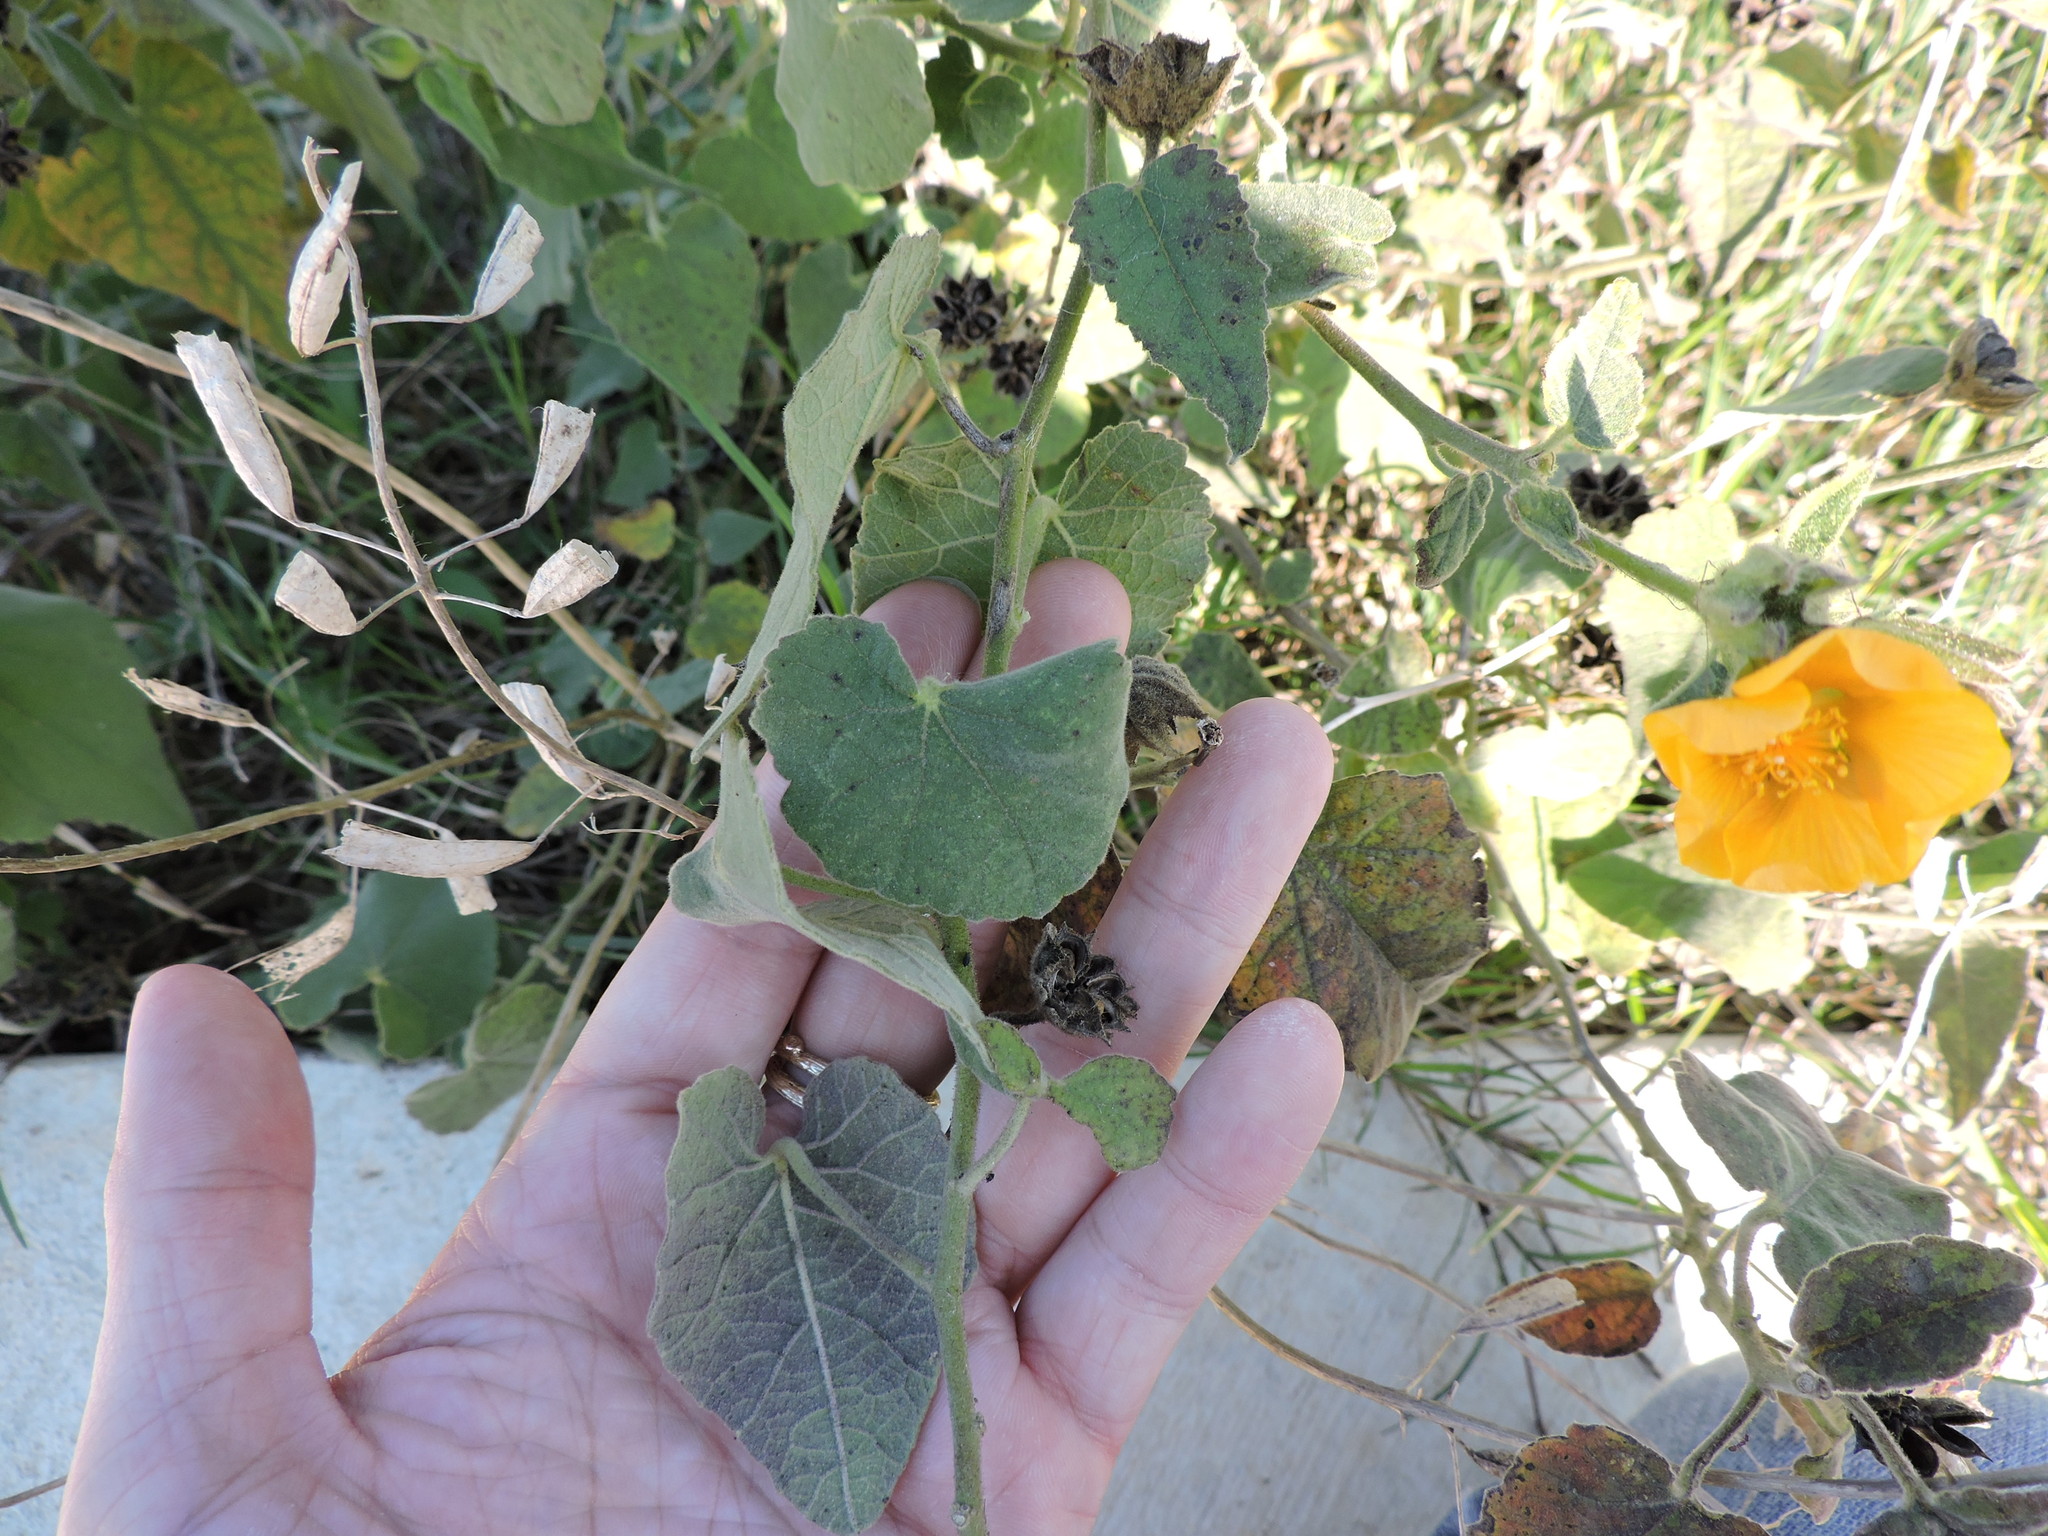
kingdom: Plantae
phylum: Tracheophyta
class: Magnoliopsida
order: Malvales
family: Malvaceae
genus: Abutilon
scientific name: Abutilon fruticosum
